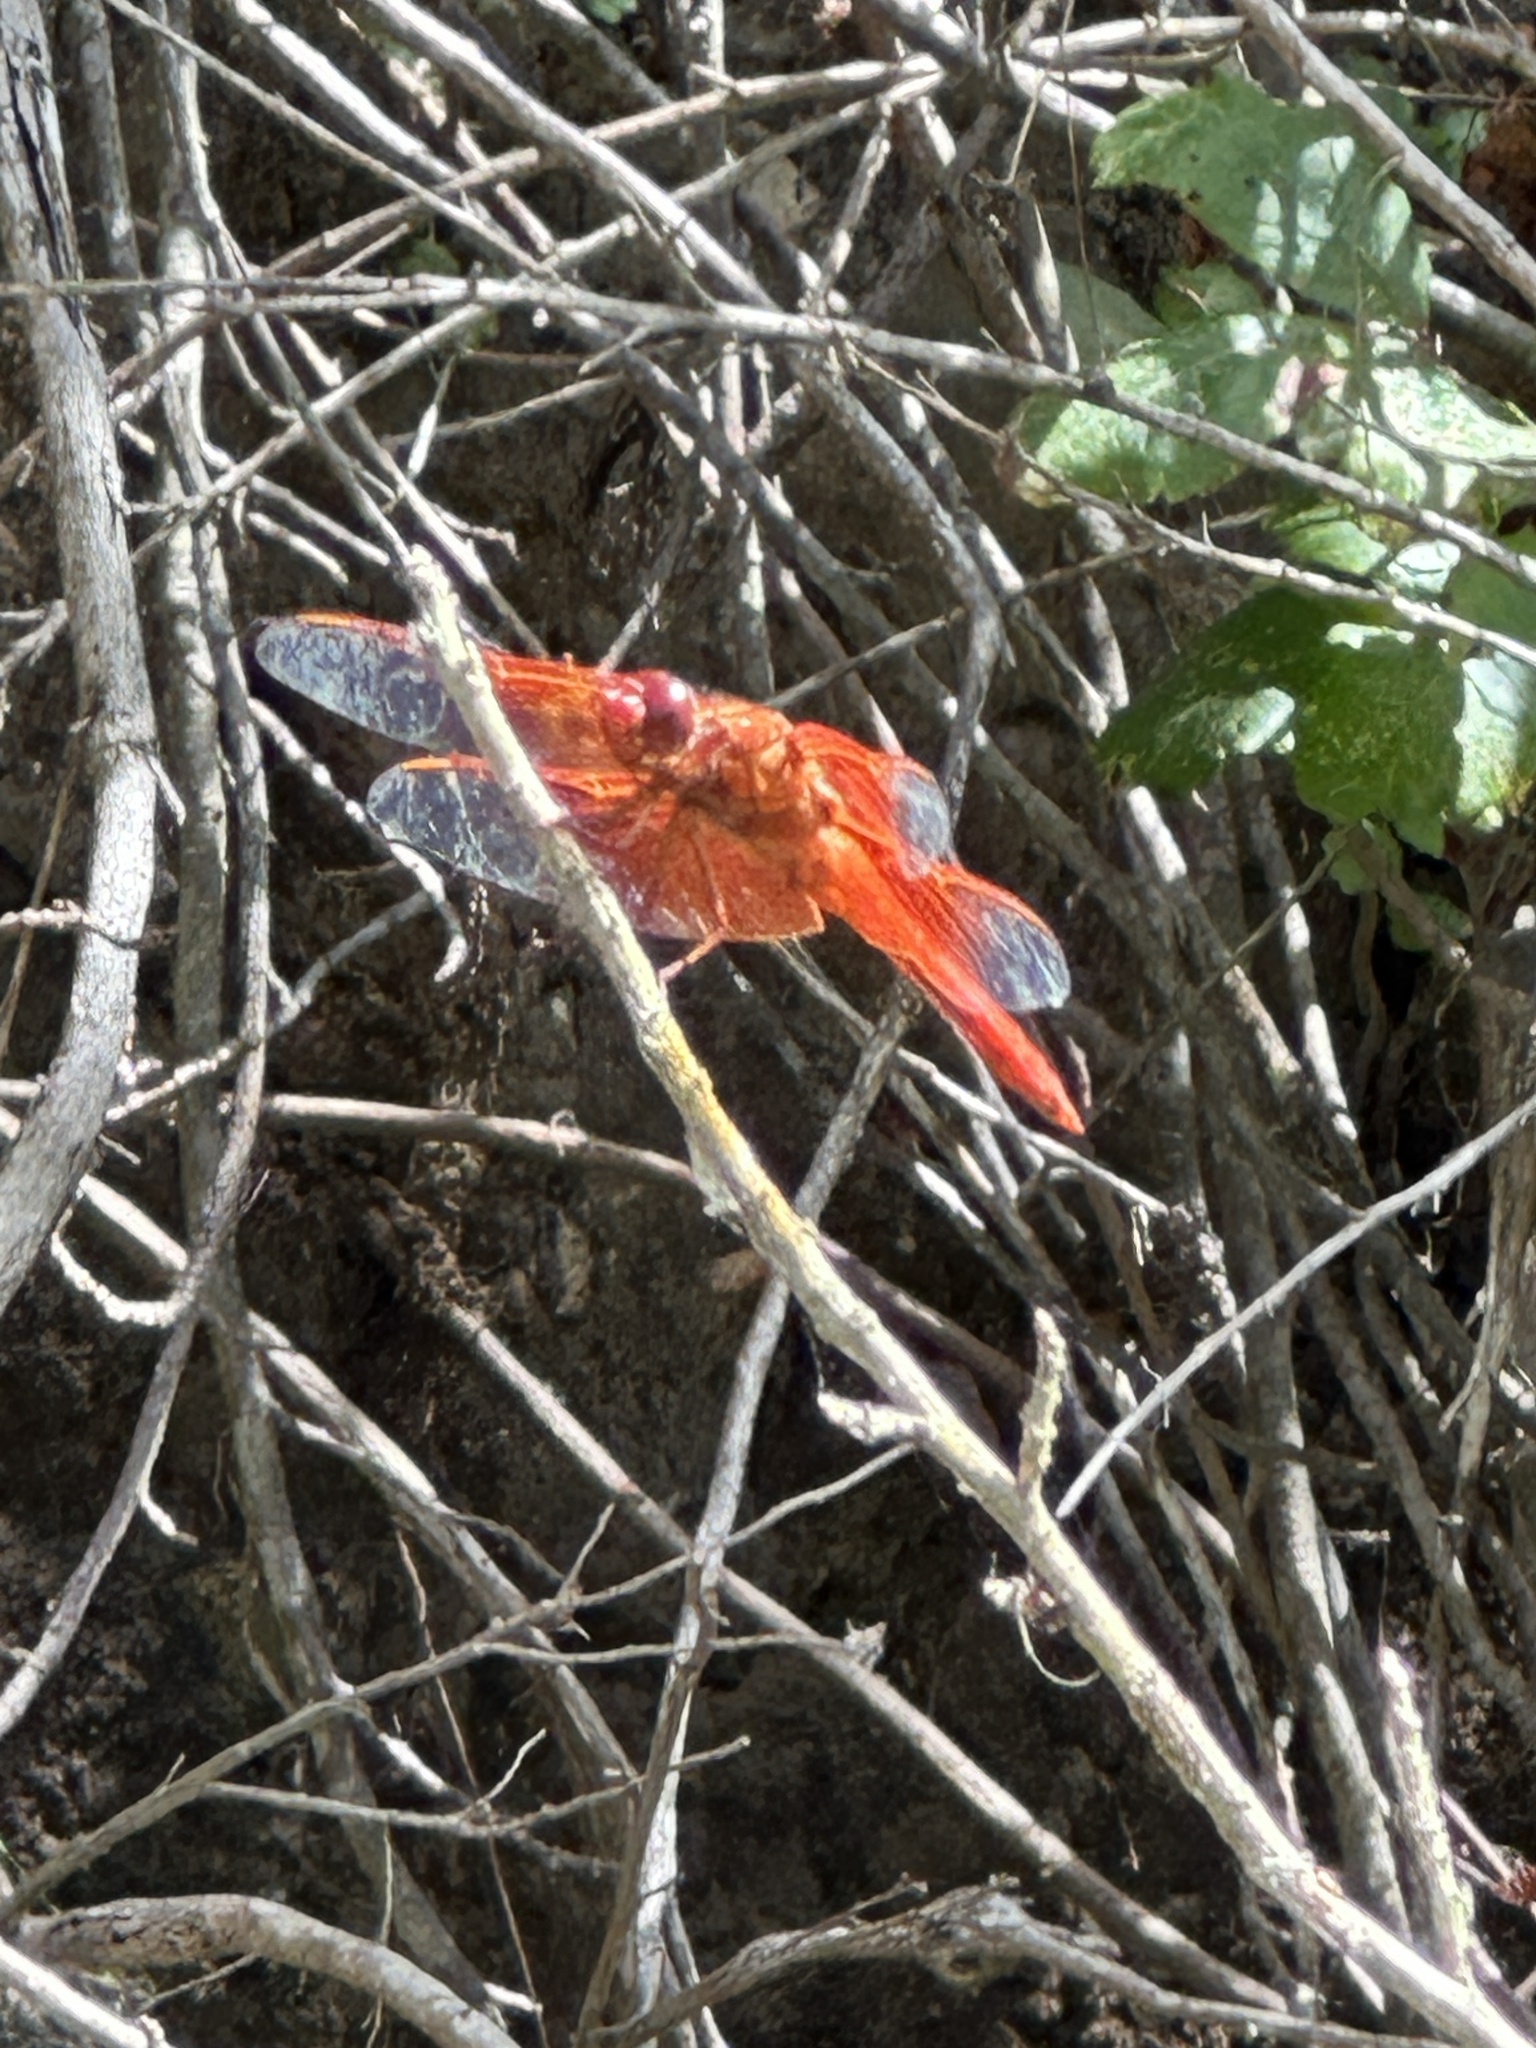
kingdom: Animalia
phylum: Arthropoda
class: Insecta
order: Odonata
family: Libellulidae
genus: Libellula
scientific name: Libellula saturata
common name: Flame skimmer
